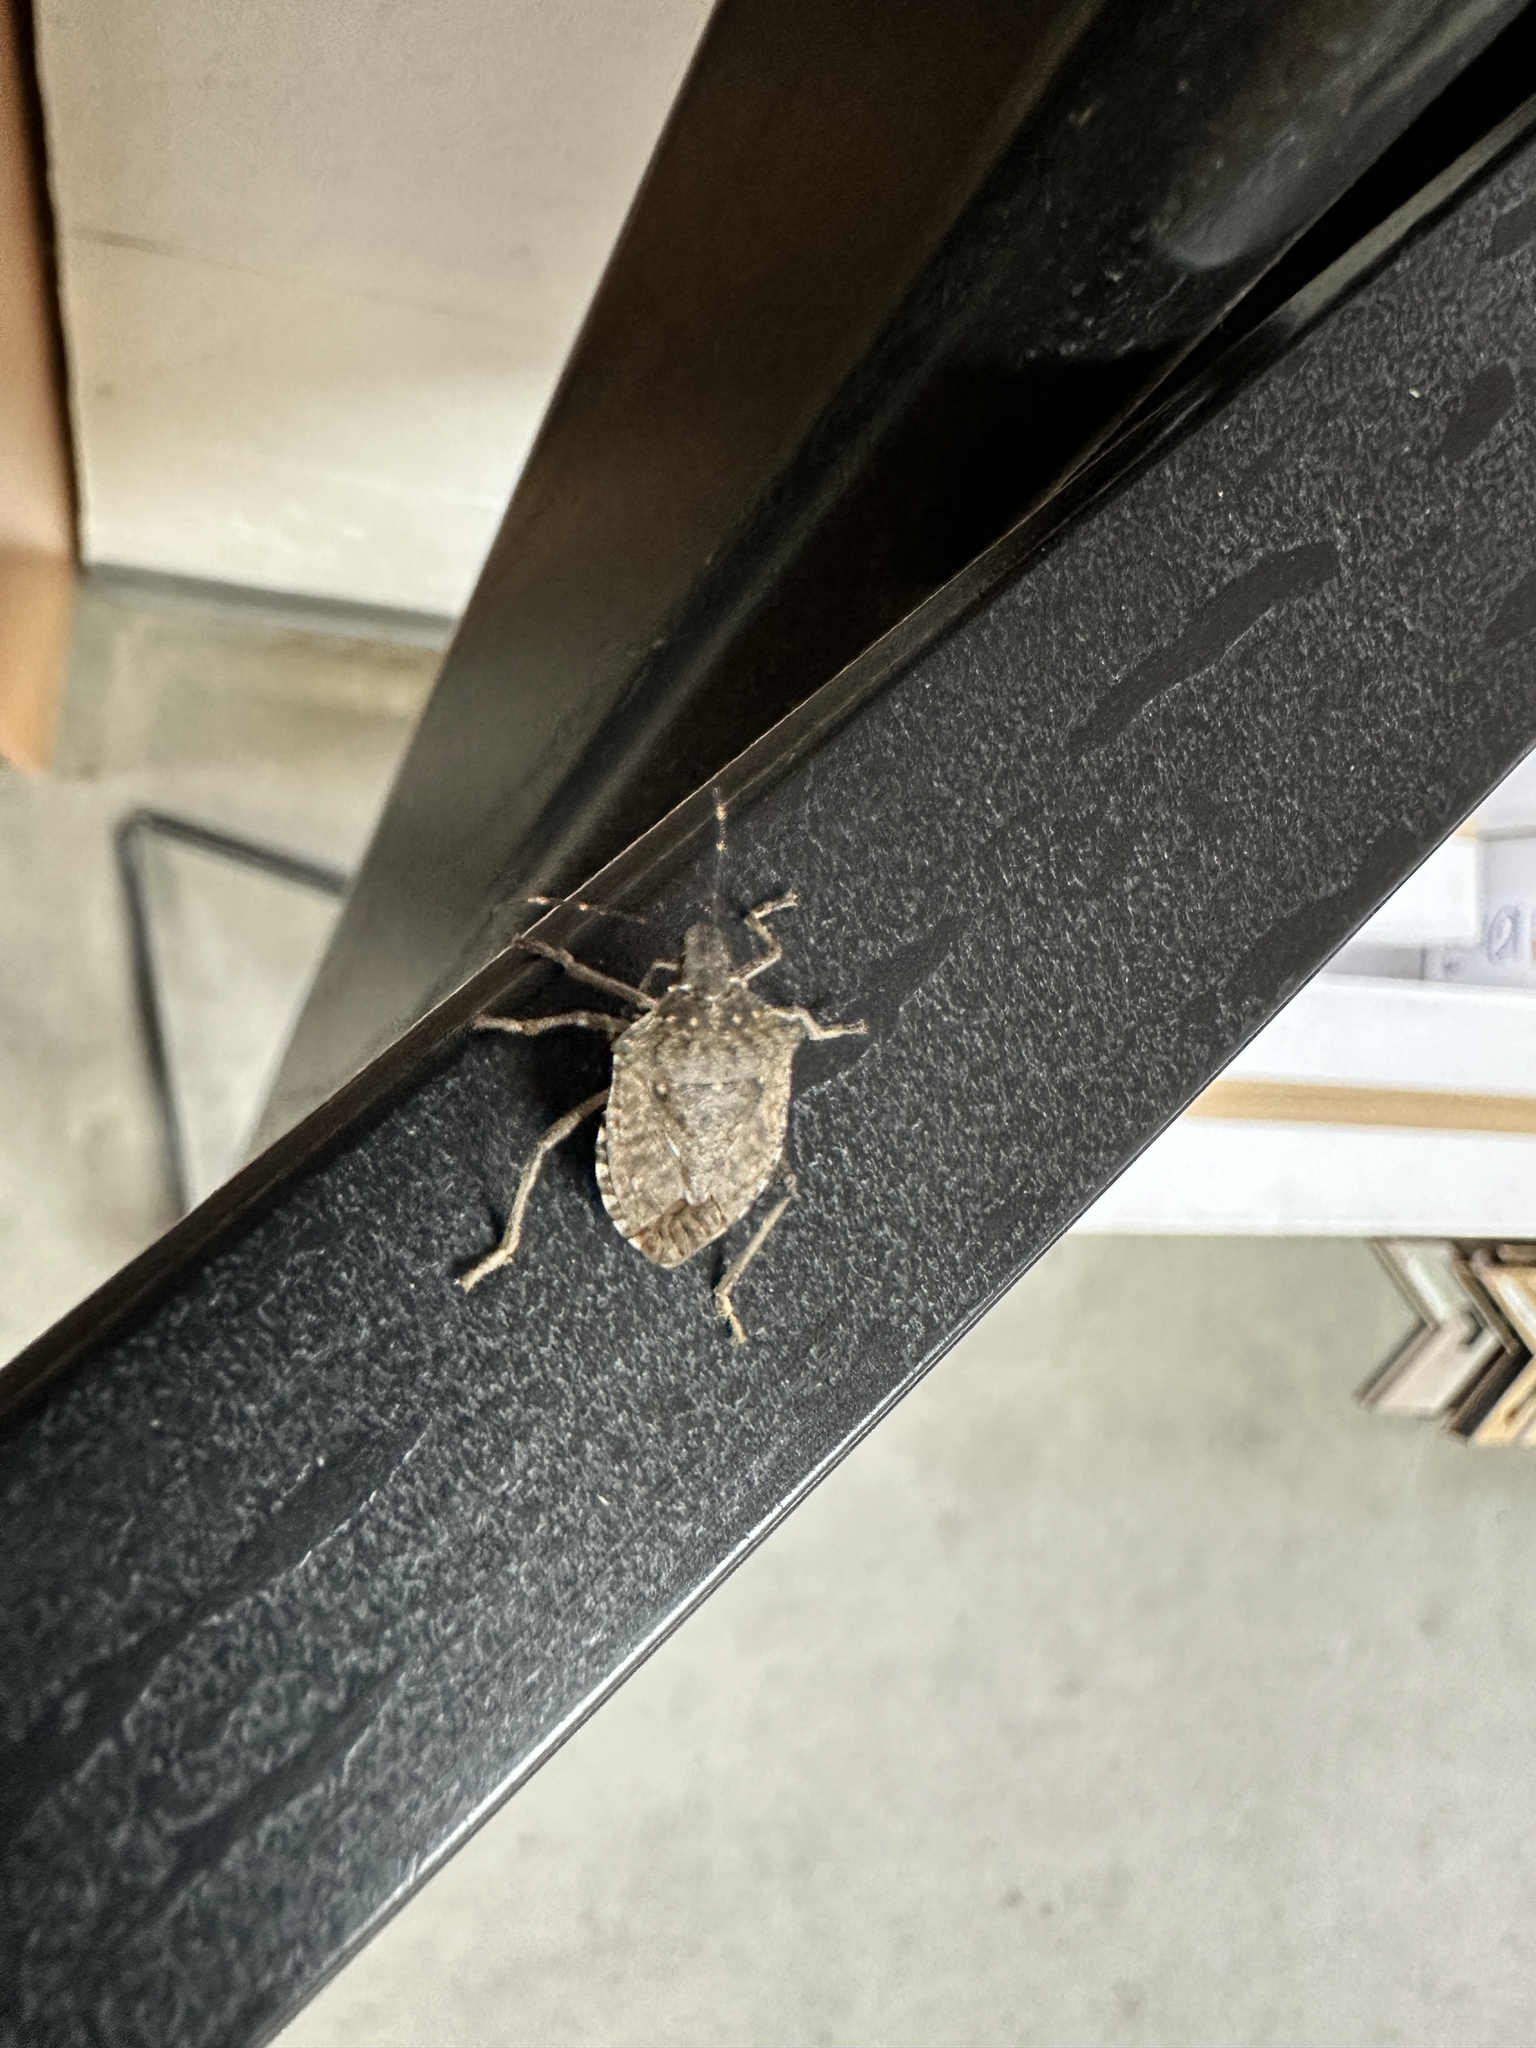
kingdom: Animalia
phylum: Arthropoda
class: Insecta
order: Hemiptera
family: Pentatomidae
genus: Halyomorpha
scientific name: Halyomorpha halys
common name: Brown marmorated stink bug
